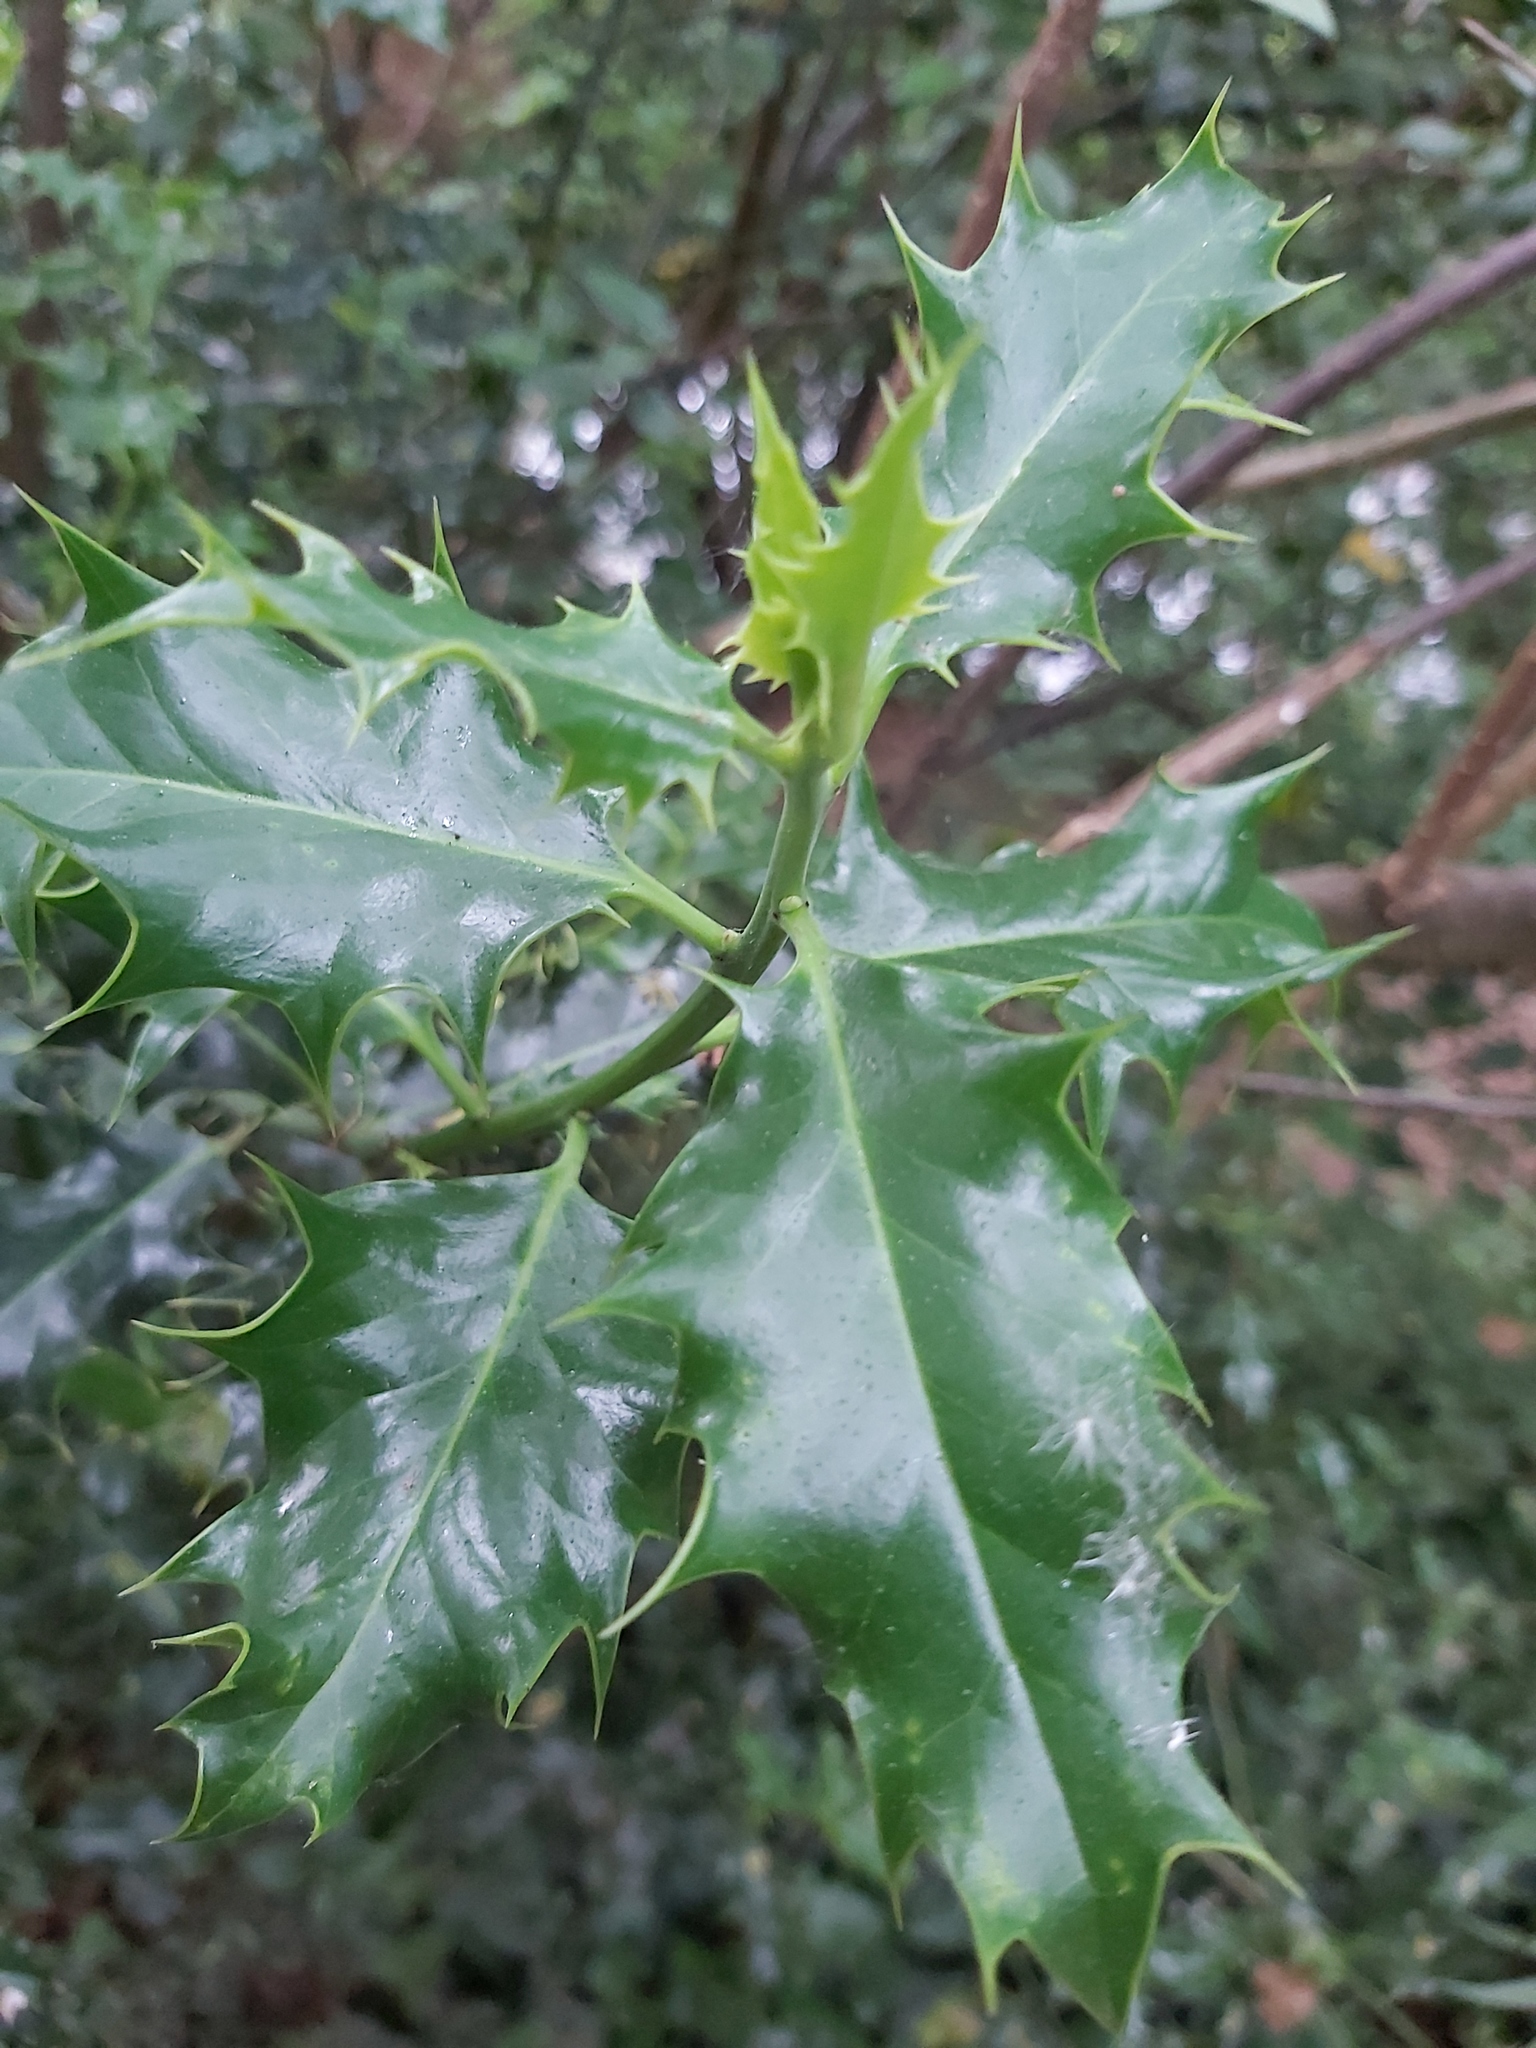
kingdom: Plantae
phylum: Tracheophyta
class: Magnoliopsida
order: Aquifoliales
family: Aquifoliaceae
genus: Ilex
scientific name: Ilex aquifolium
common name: English holly
